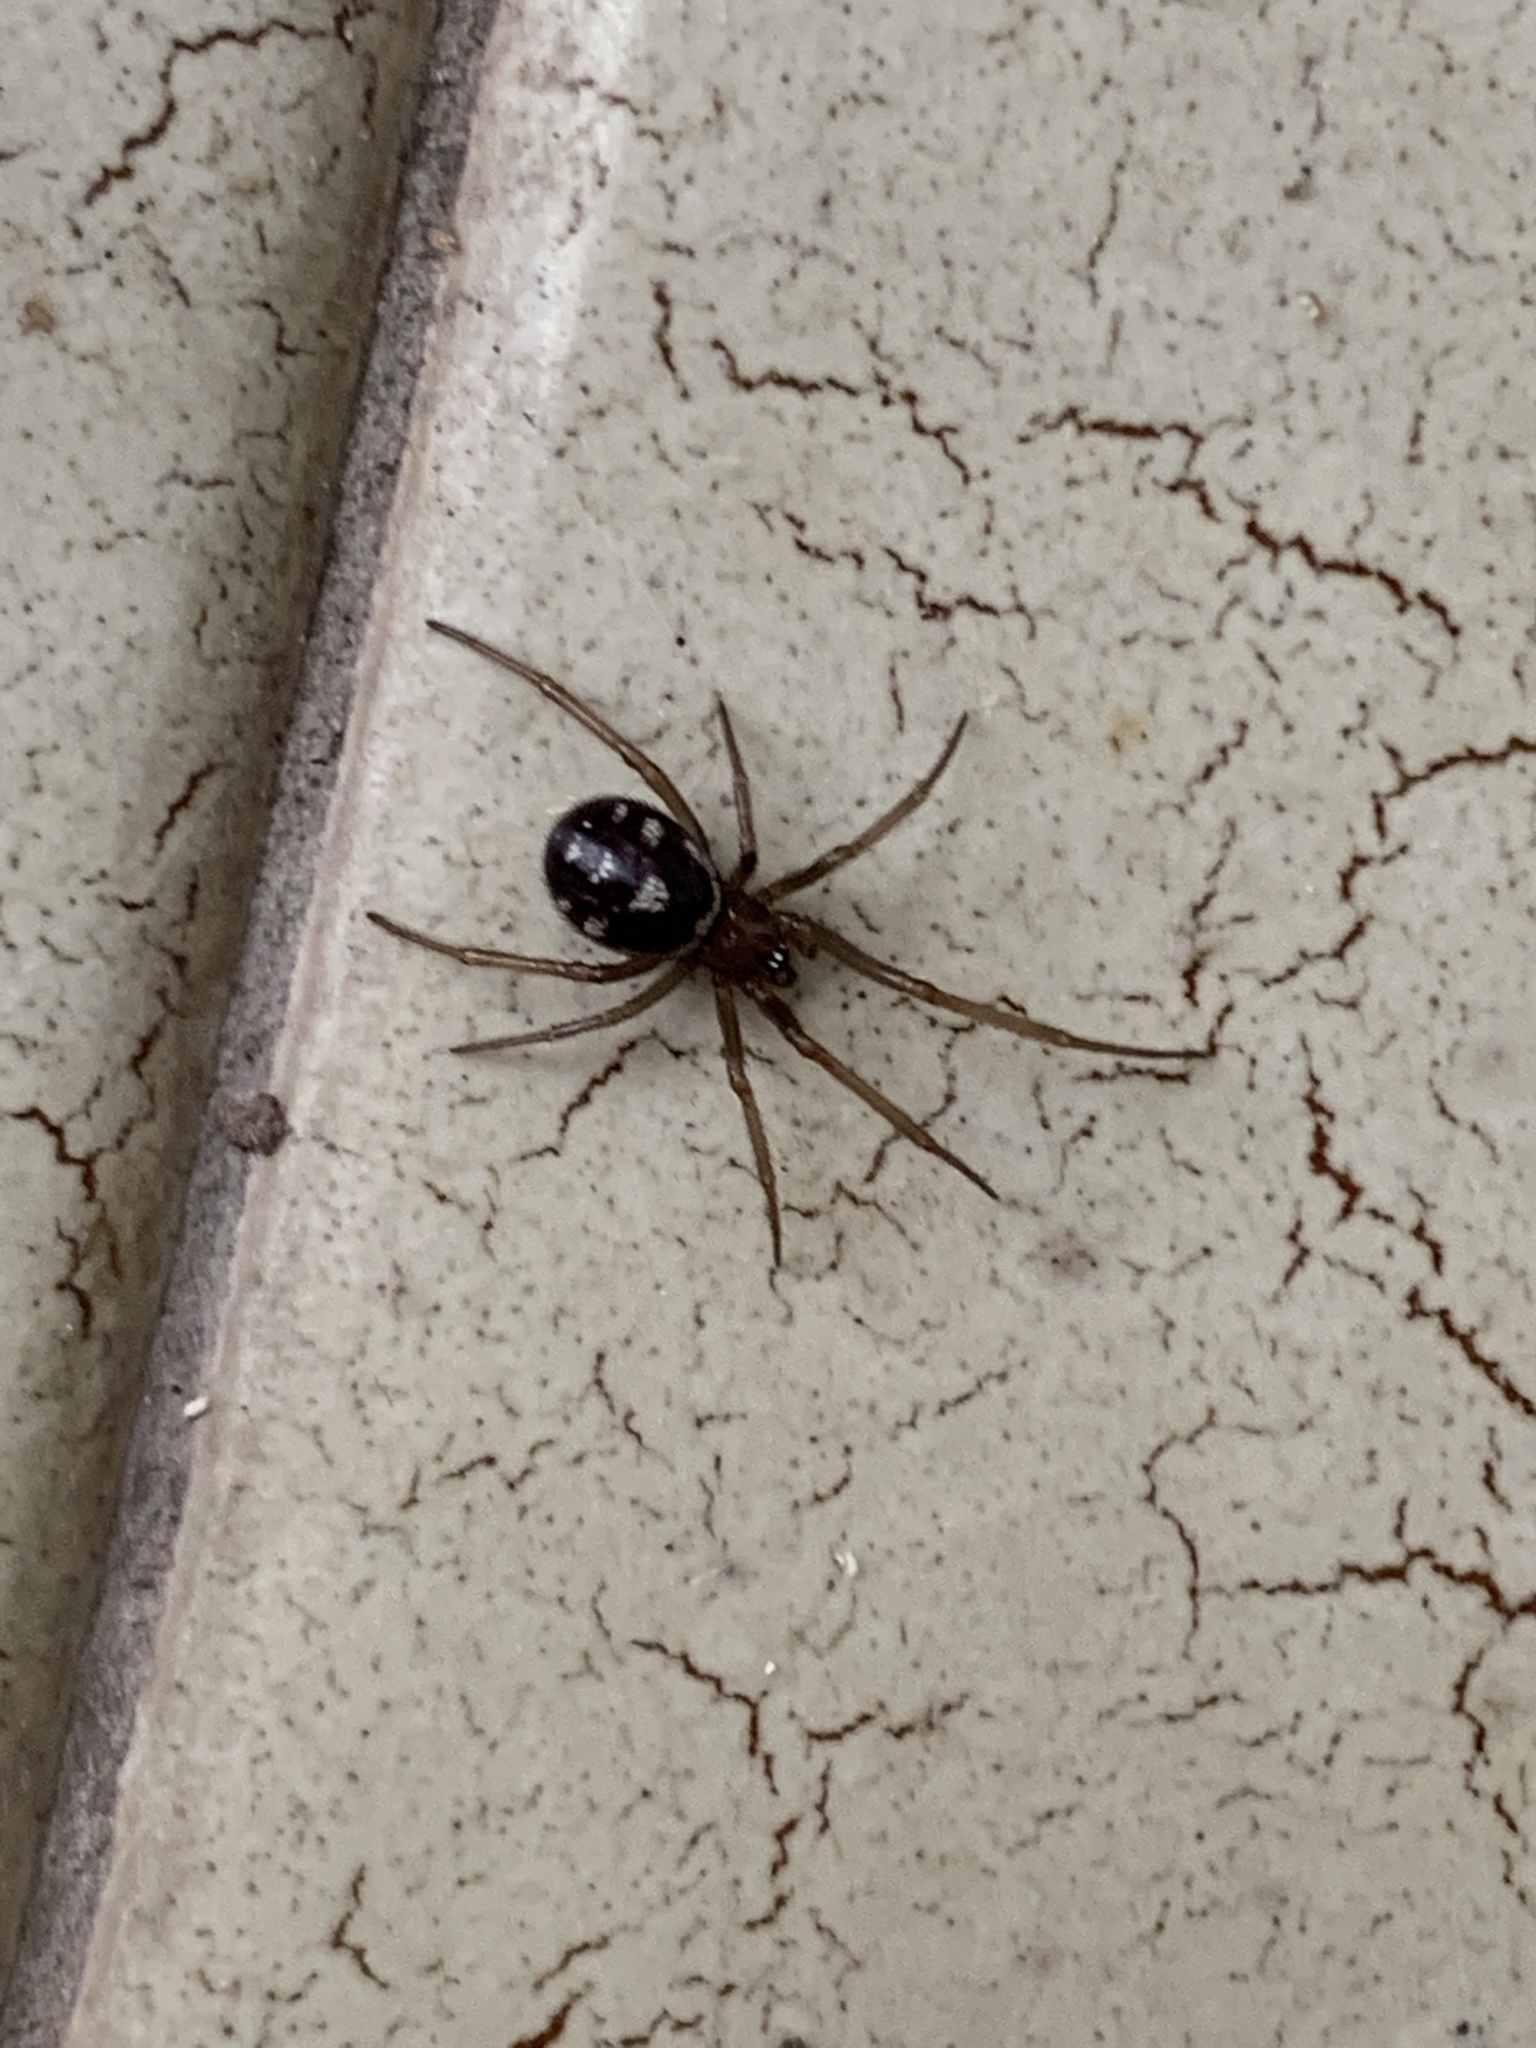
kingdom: Animalia
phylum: Arthropoda
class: Arachnida
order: Araneae
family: Theridiidae
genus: Steatoda
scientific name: Steatoda grossa
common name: False black widow
